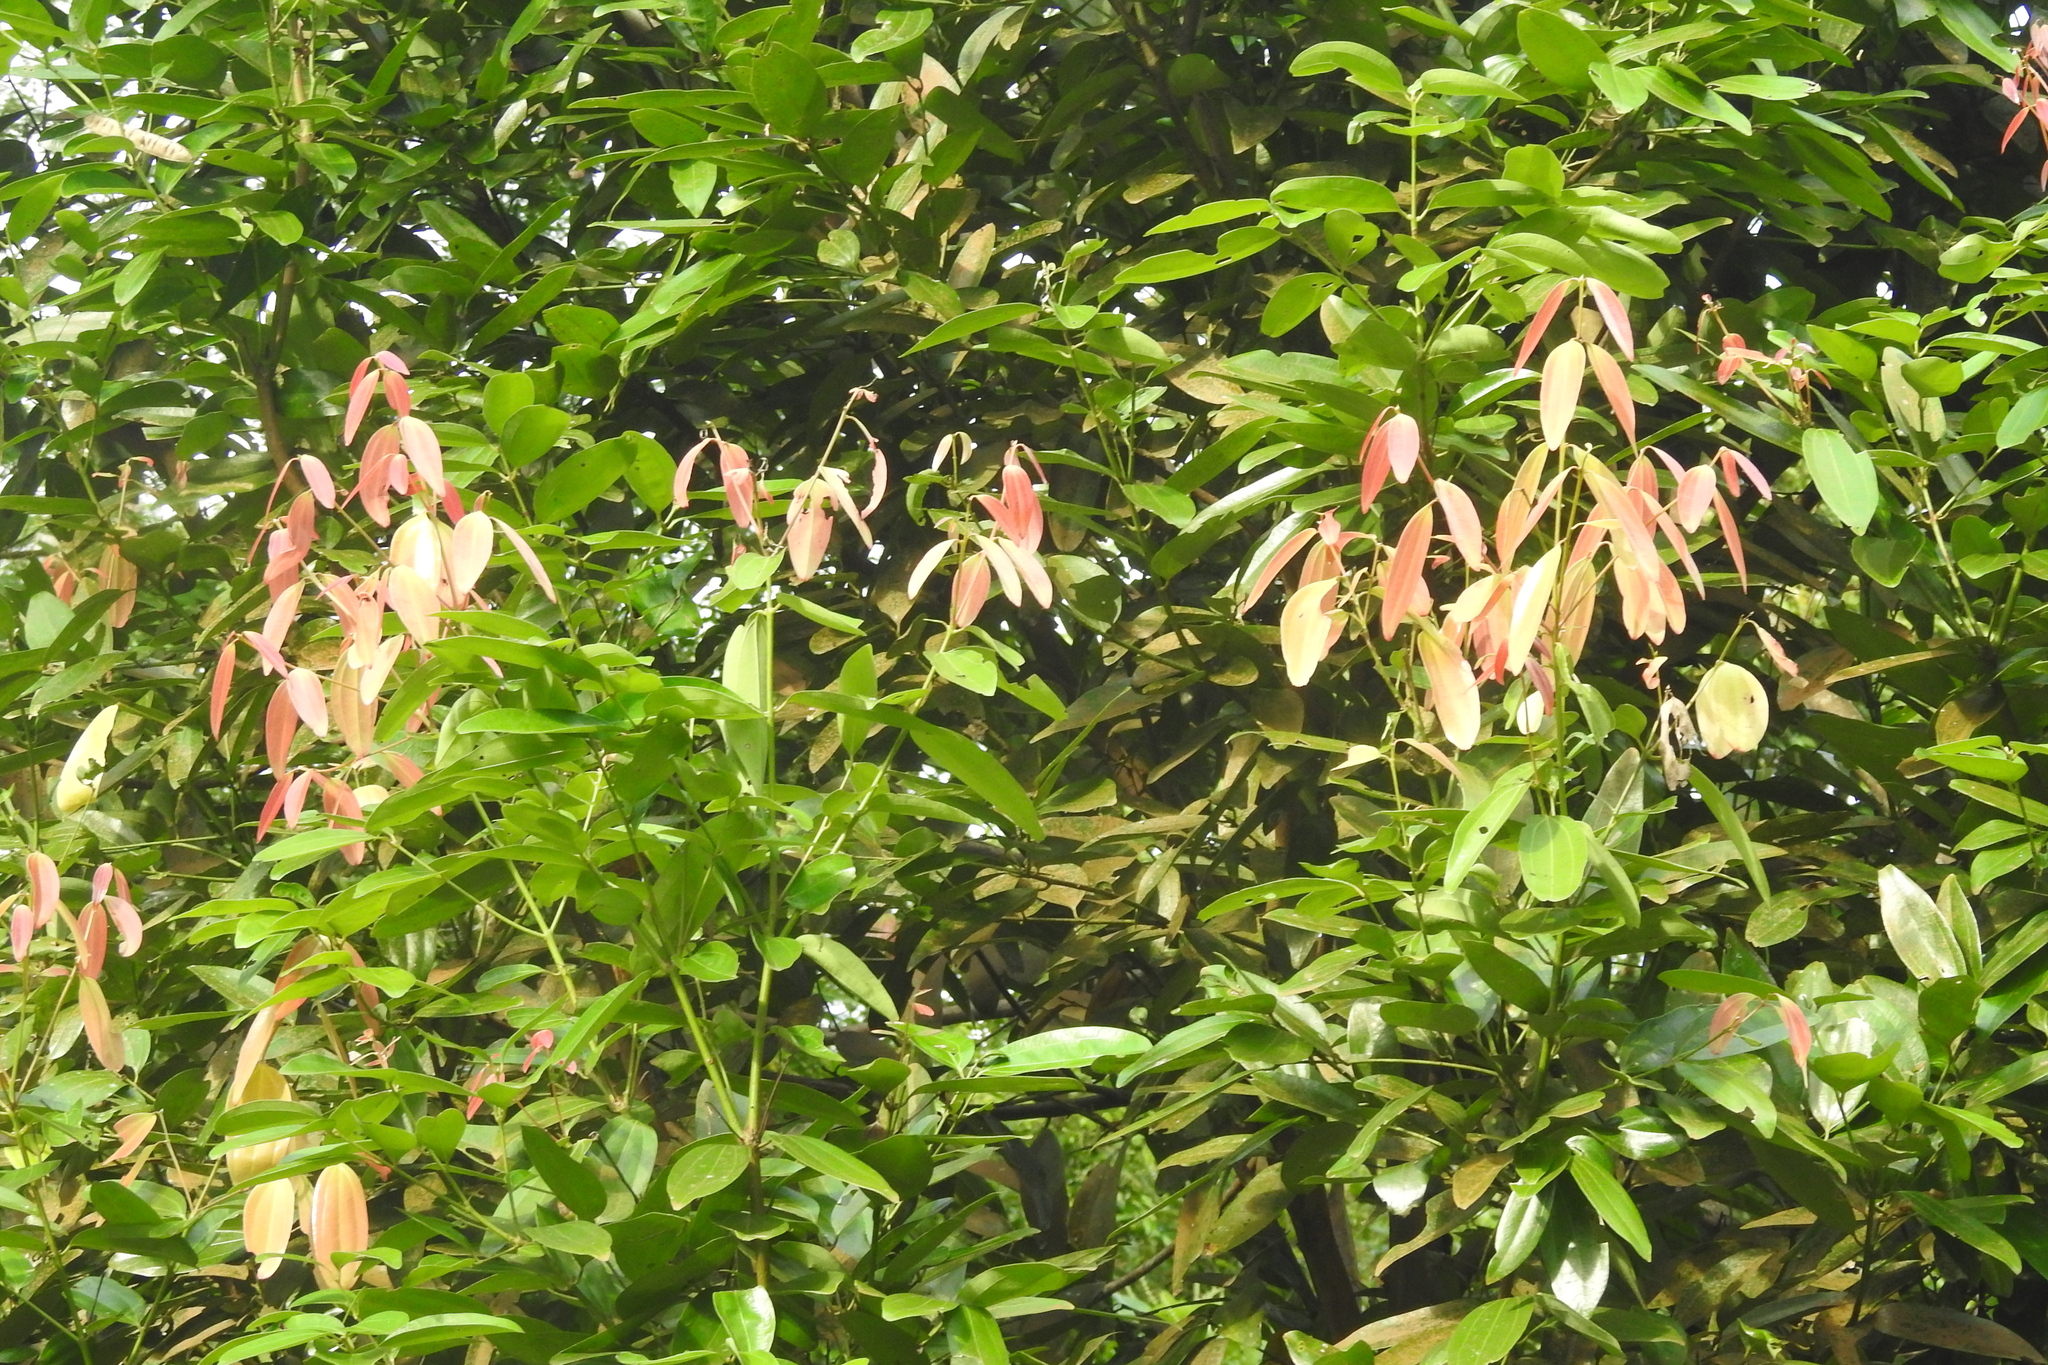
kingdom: Plantae
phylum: Tracheophyta
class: Magnoliopsida
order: Laurales
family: Lauraceae
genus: Cinnamomum
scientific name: Cinnamomum iners
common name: Wild cinnamon
